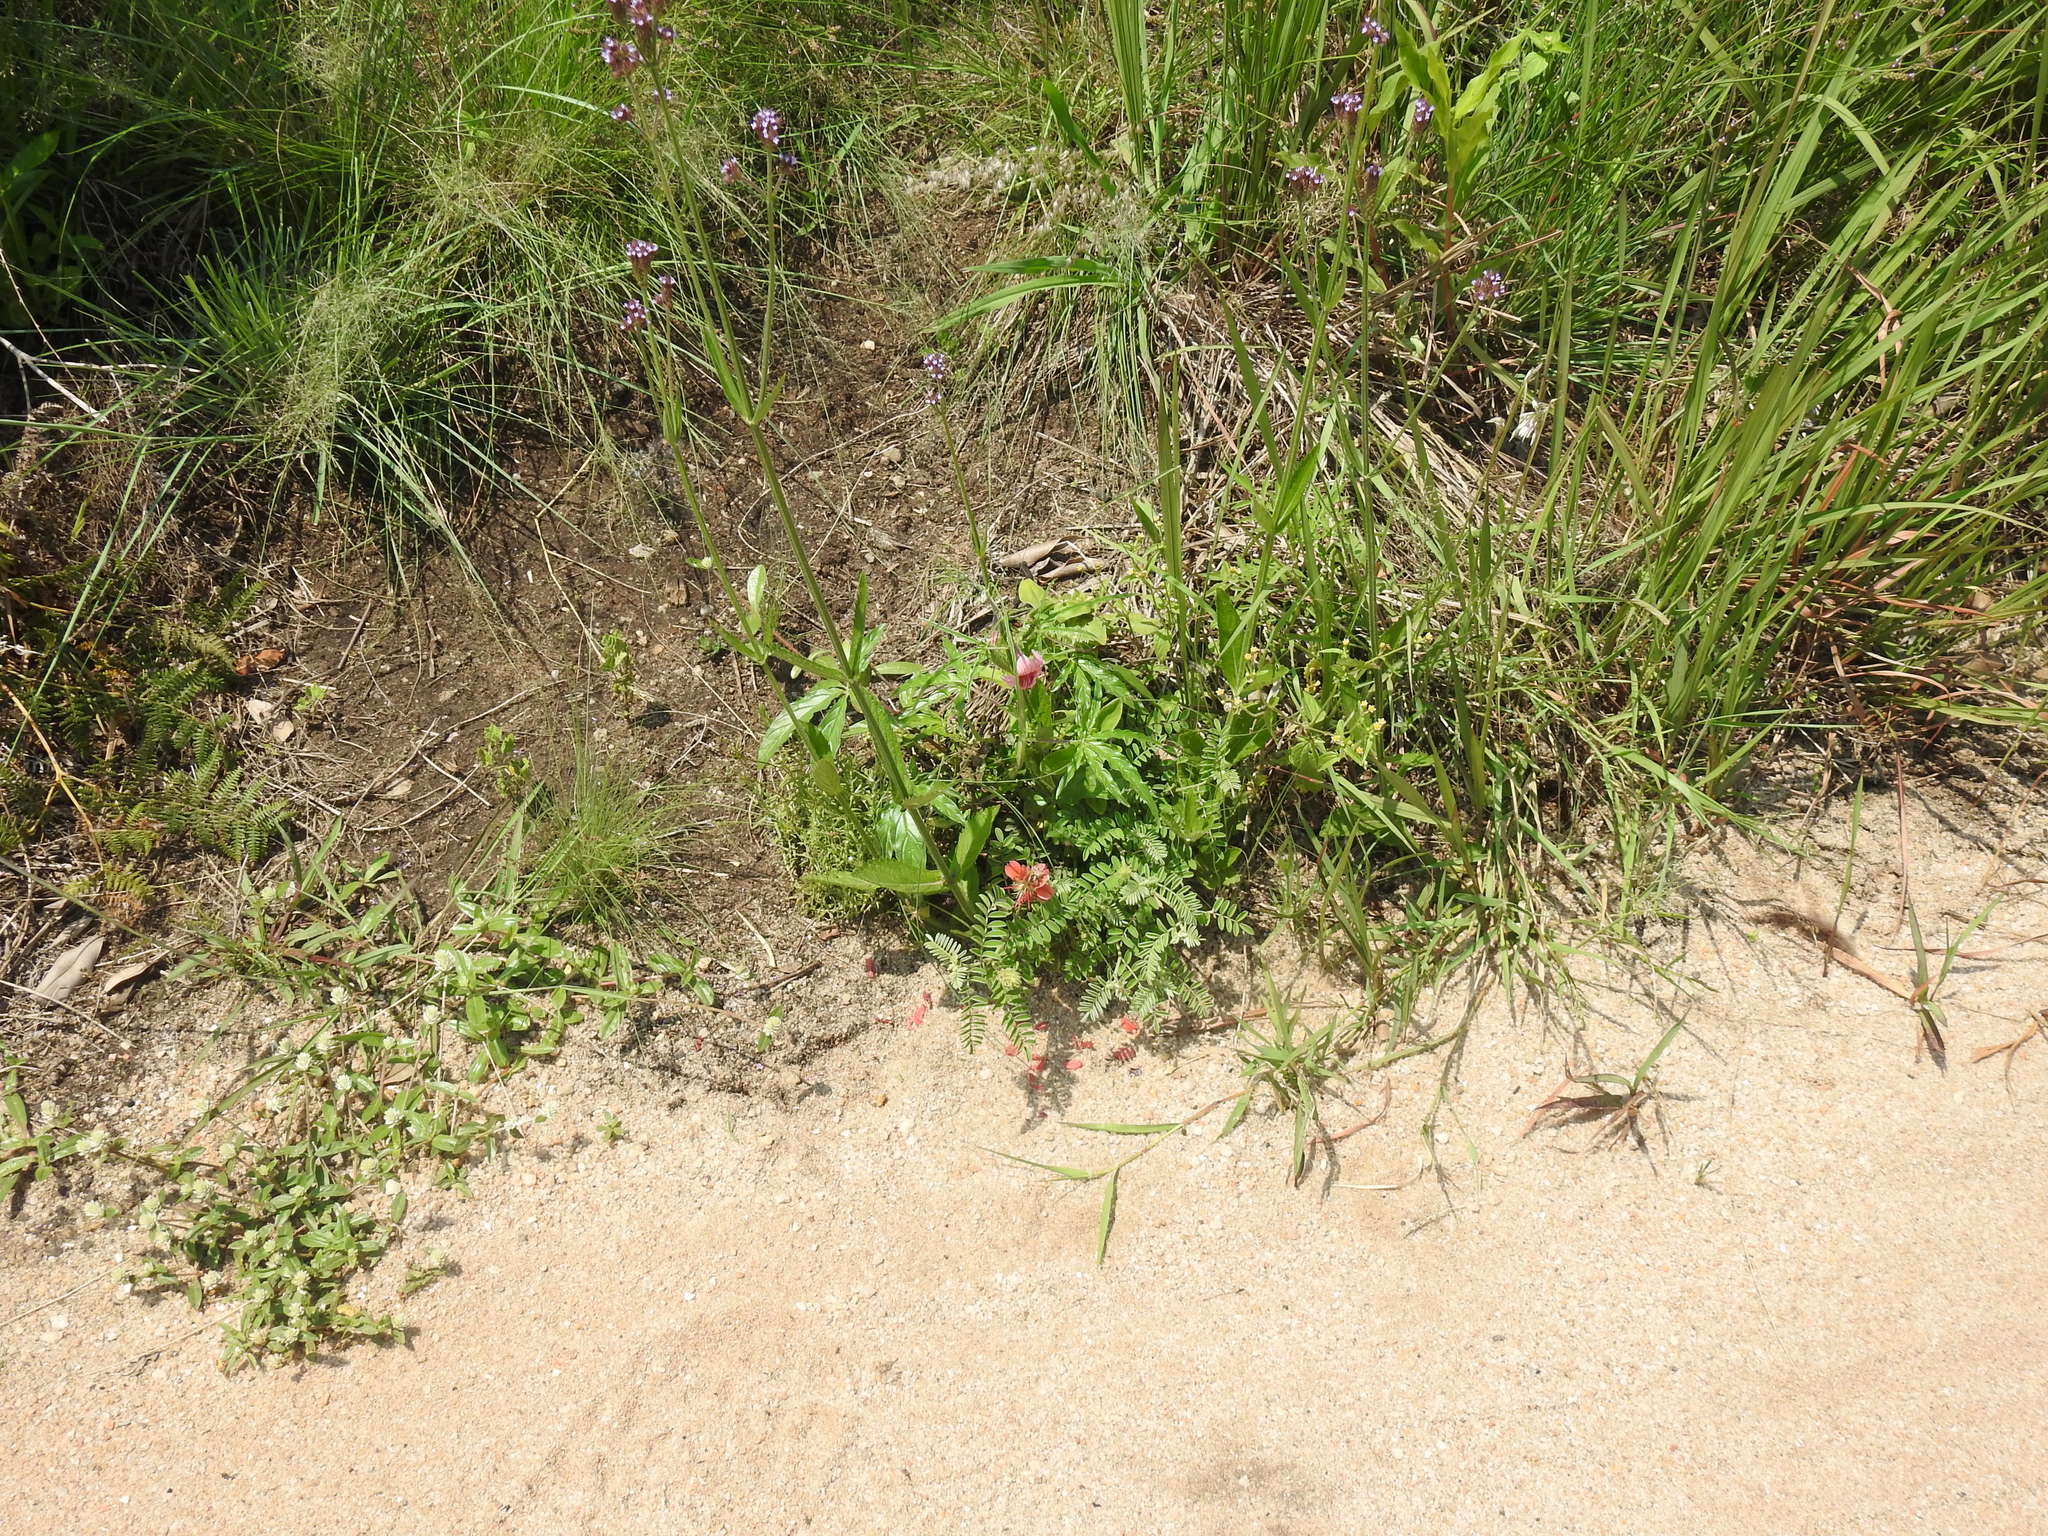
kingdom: Plantae
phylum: Tracheophyta
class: Magnoliopsida
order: Fabales
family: Fabaceae
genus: Indigofera
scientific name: Indigofera oxytropis
